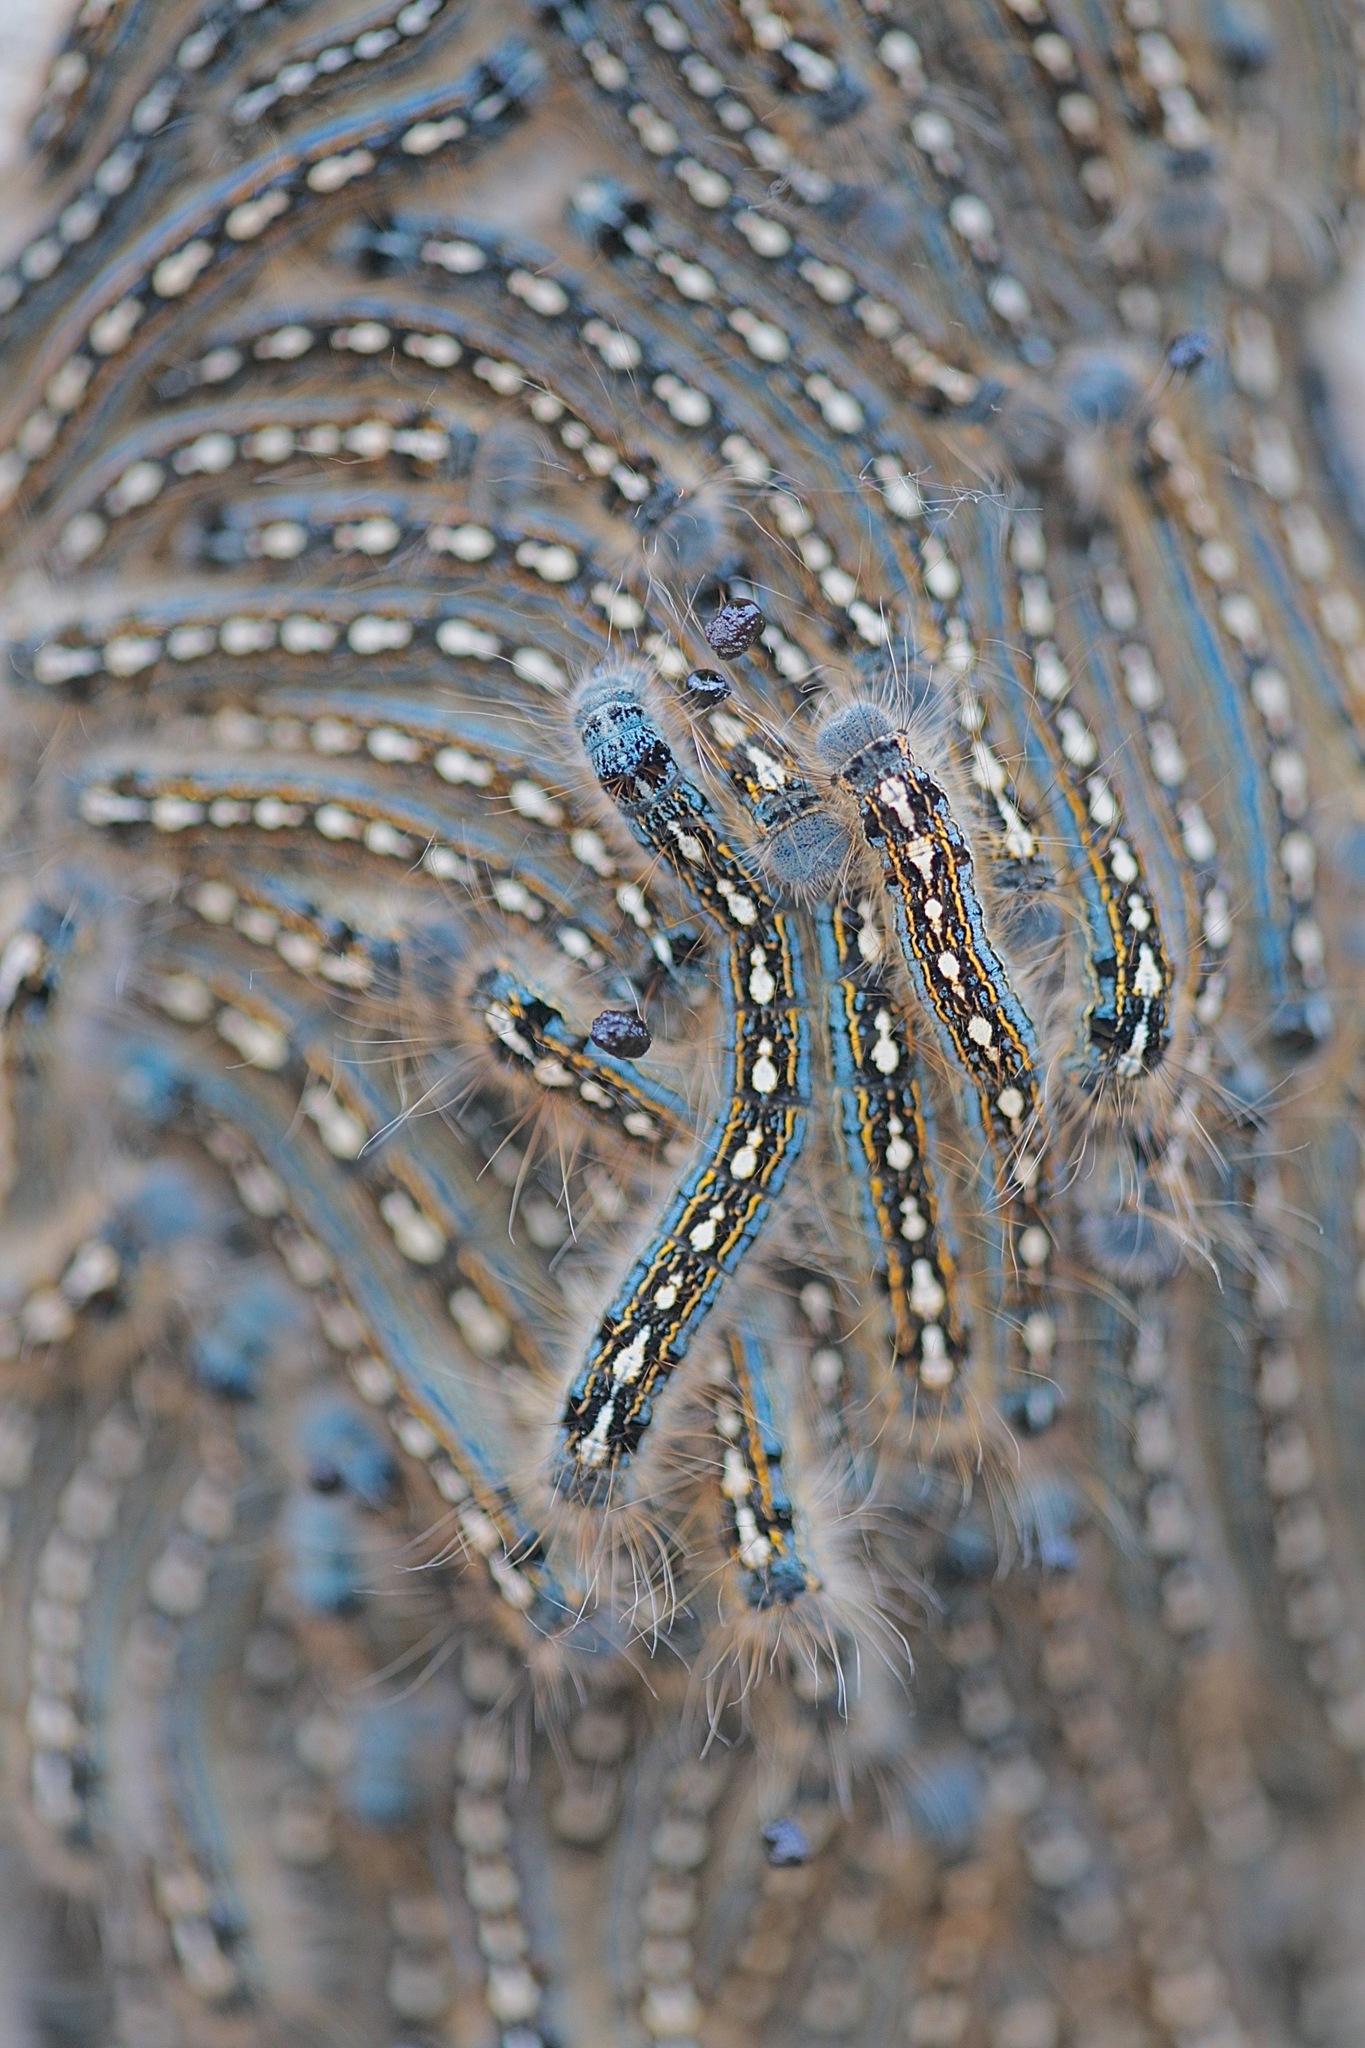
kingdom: Animalia
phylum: Arthropoda
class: Insecta
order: Lepidoptera
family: Lasiocampidae
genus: Malacosoma
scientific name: Malacosoma disstria
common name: Forest tent caterpillar
